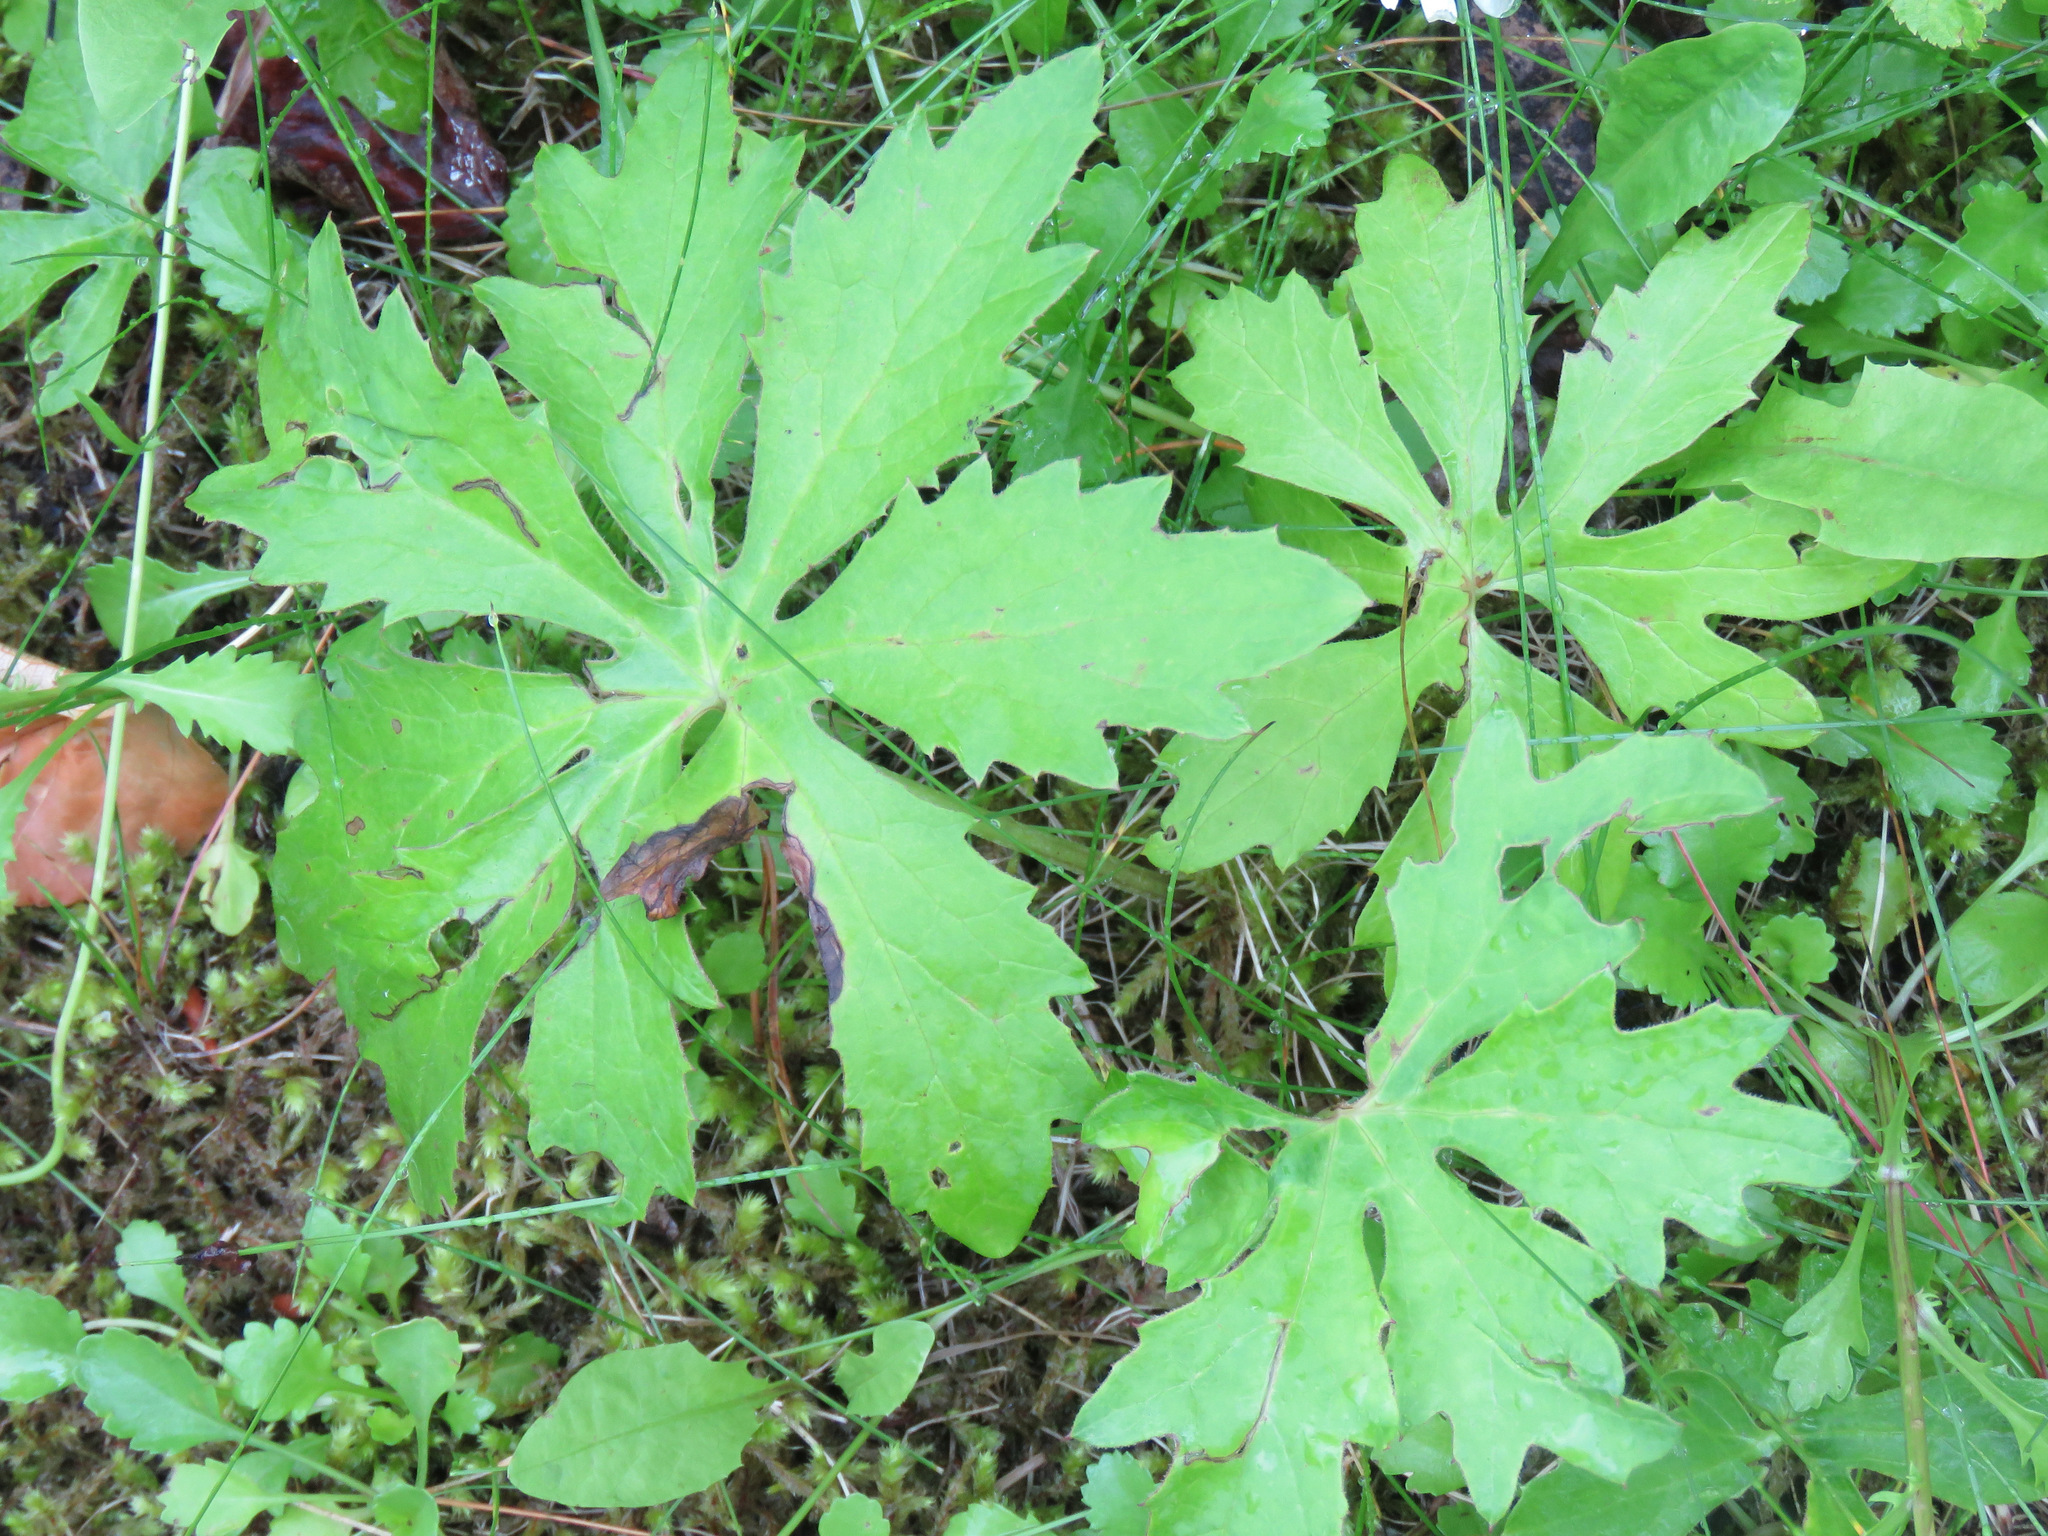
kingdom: Plantae
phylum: Tracheophyta
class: Magnoliopsida
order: Asterales
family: Asteraceae
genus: Petasites
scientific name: Petasites frigidus
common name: Arctic butterbur
